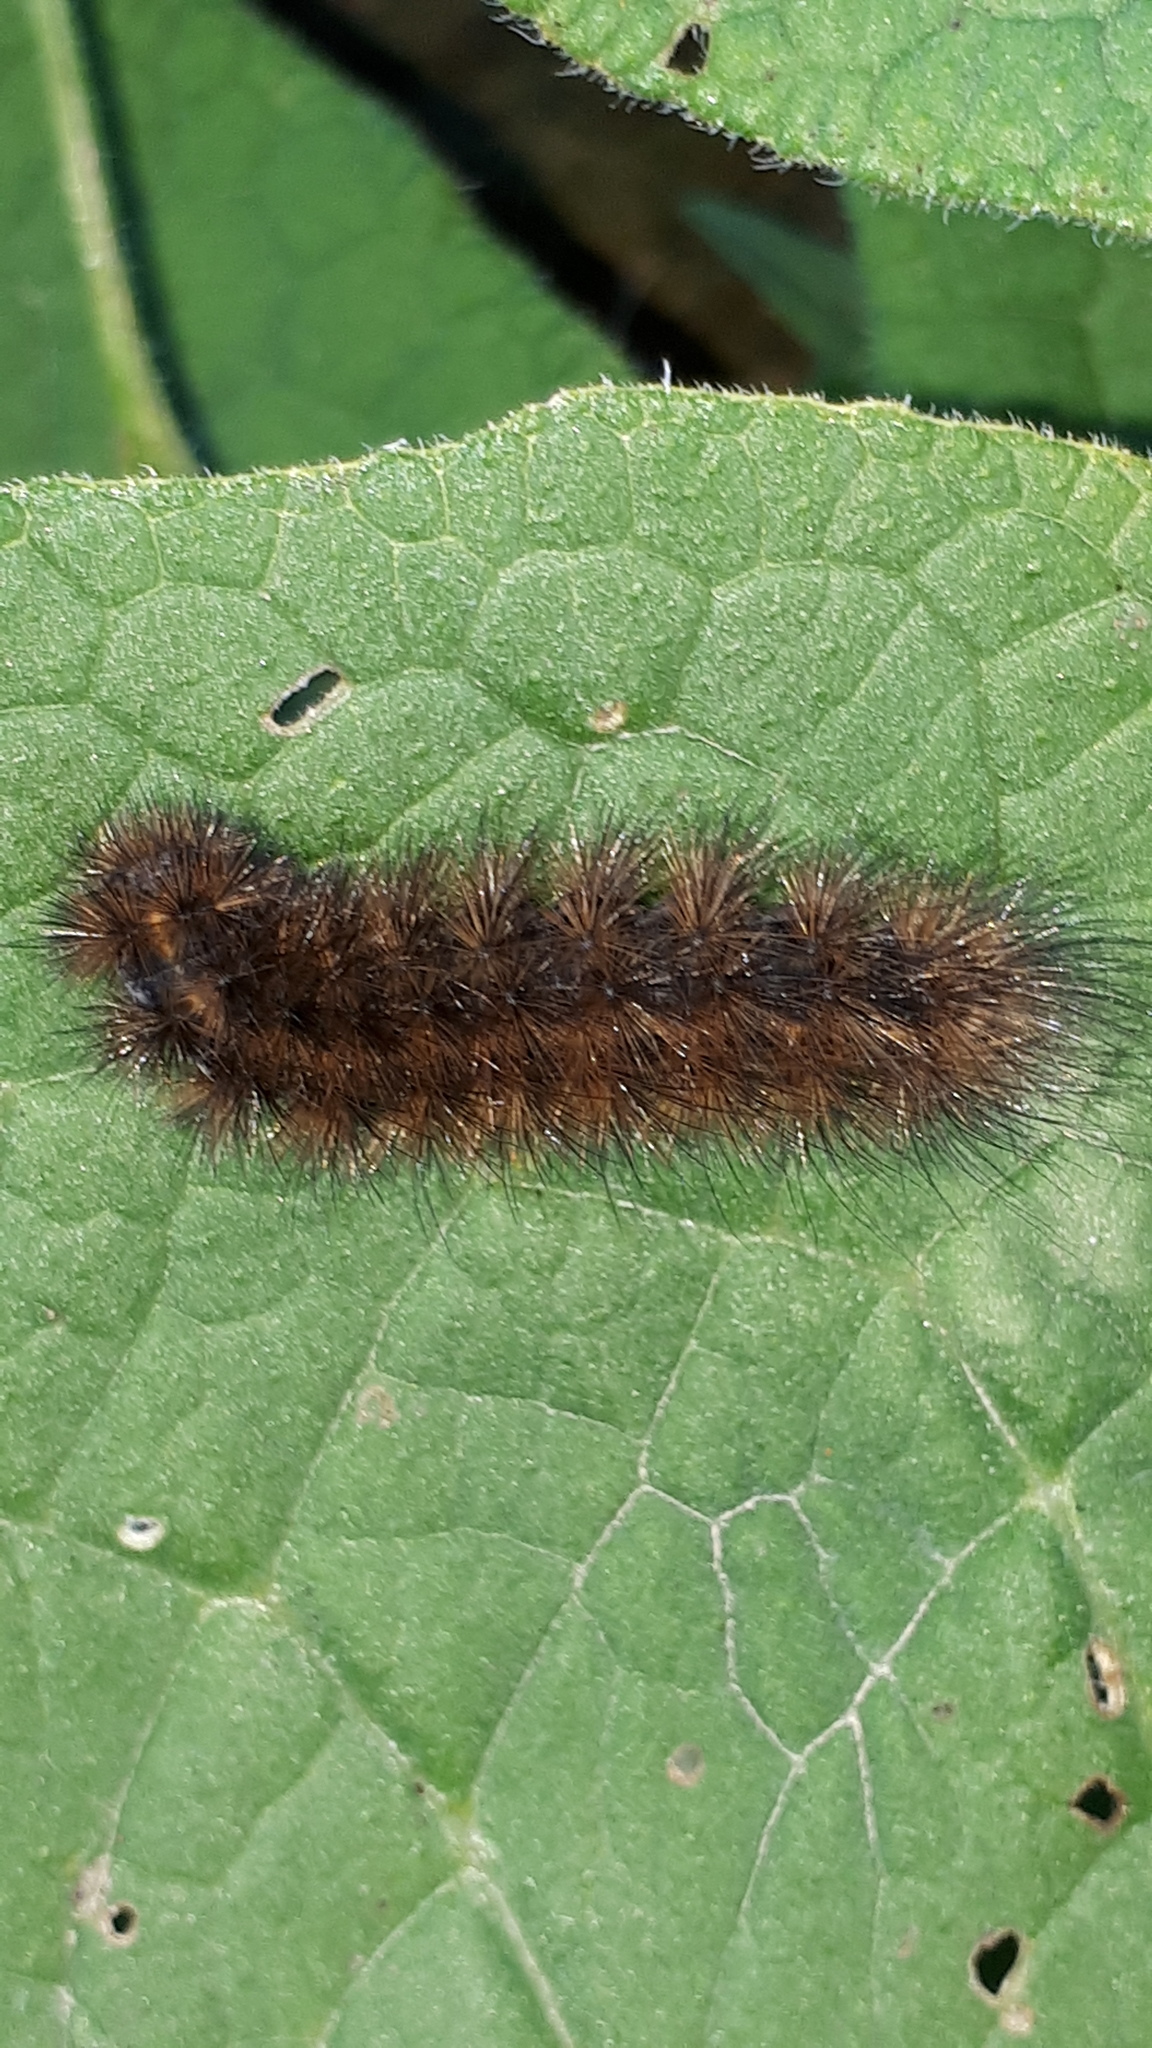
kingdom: Animalia
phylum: Arthropoda
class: Insecta
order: Lepidoptera
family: Erebidae
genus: Phragmatobia
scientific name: Phragmatobia fuliginosa
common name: Ruby tiger
